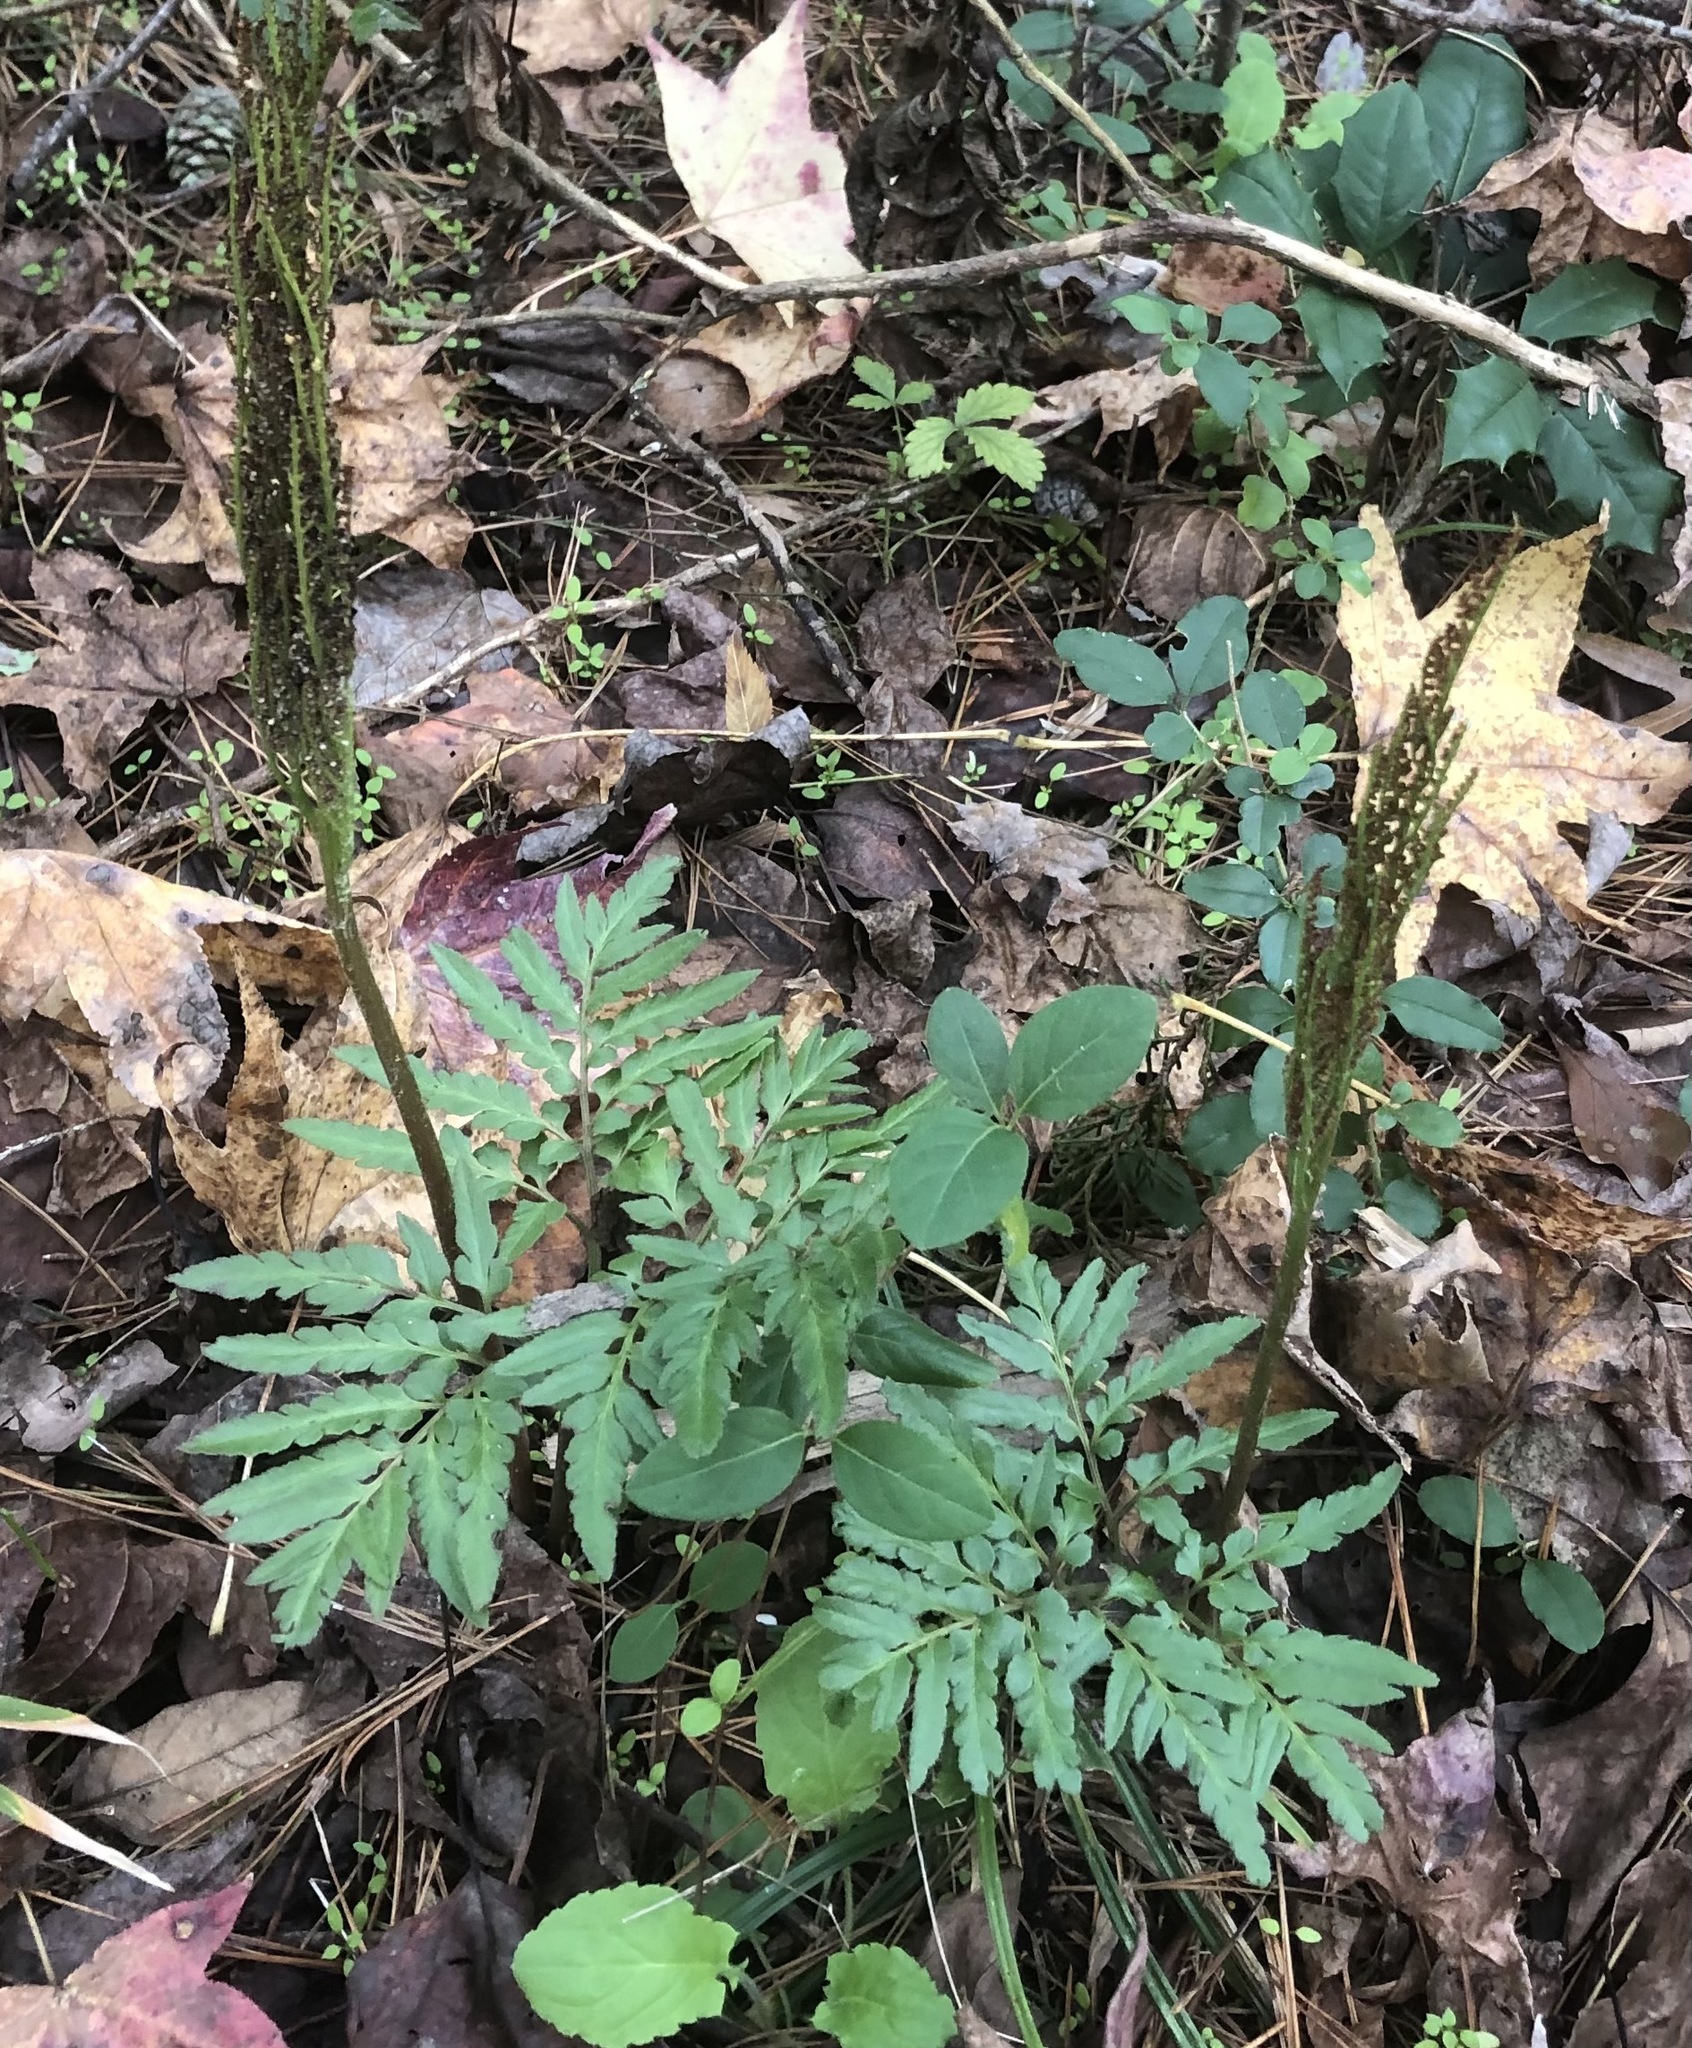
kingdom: Plantae
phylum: Tracheophyta
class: Polypodiopsida
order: Ophioglossales
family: Ophioglossaceae
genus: Sceptridium
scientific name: Sceptridium dissectum
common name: Cut-leaved grapefern
